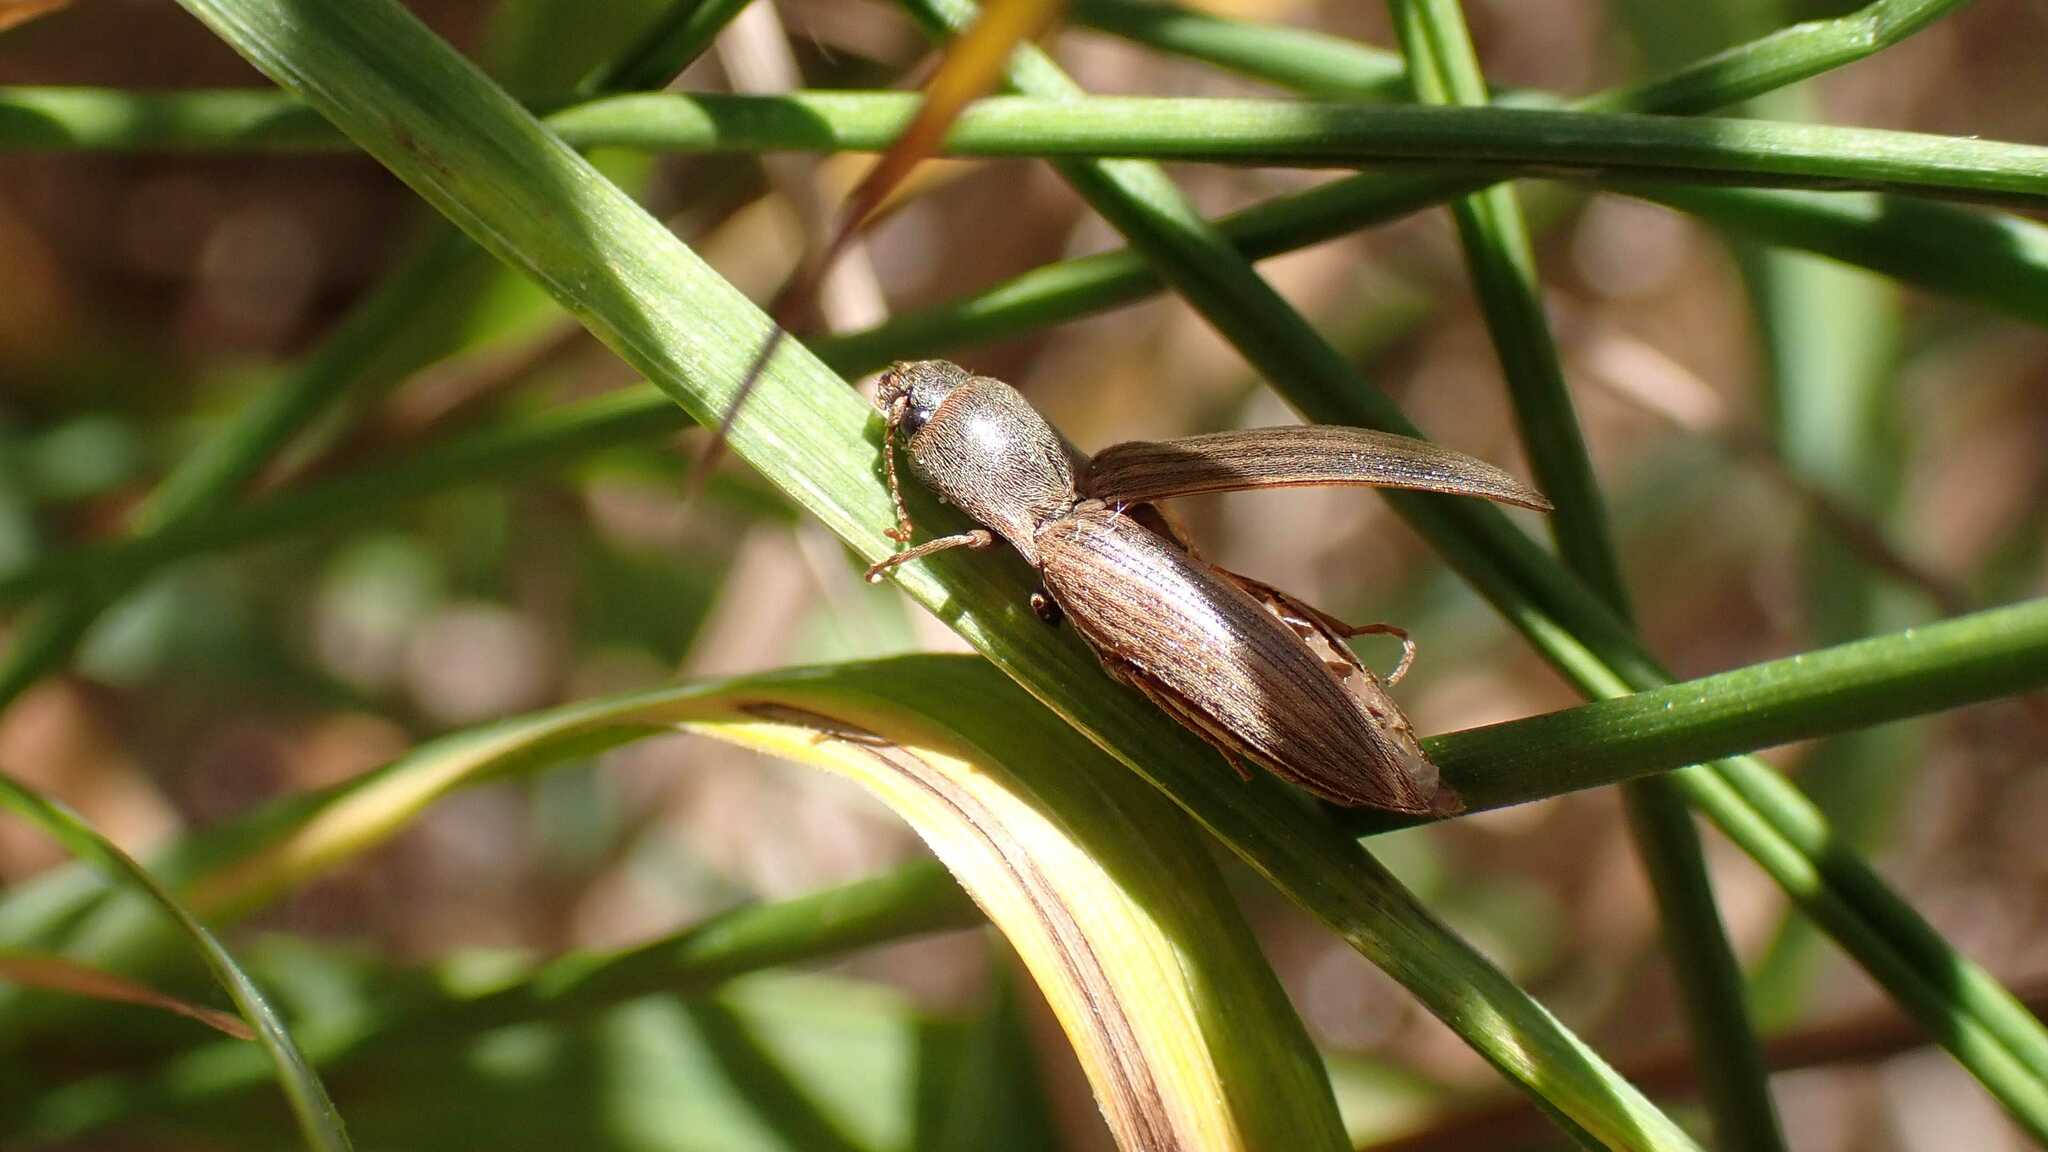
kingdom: Animalia
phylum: Arthropoda
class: Insecta
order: Coleoptera
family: Elateridae
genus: Agriotes
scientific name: Agriotes lineatus
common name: Lined click beetle
